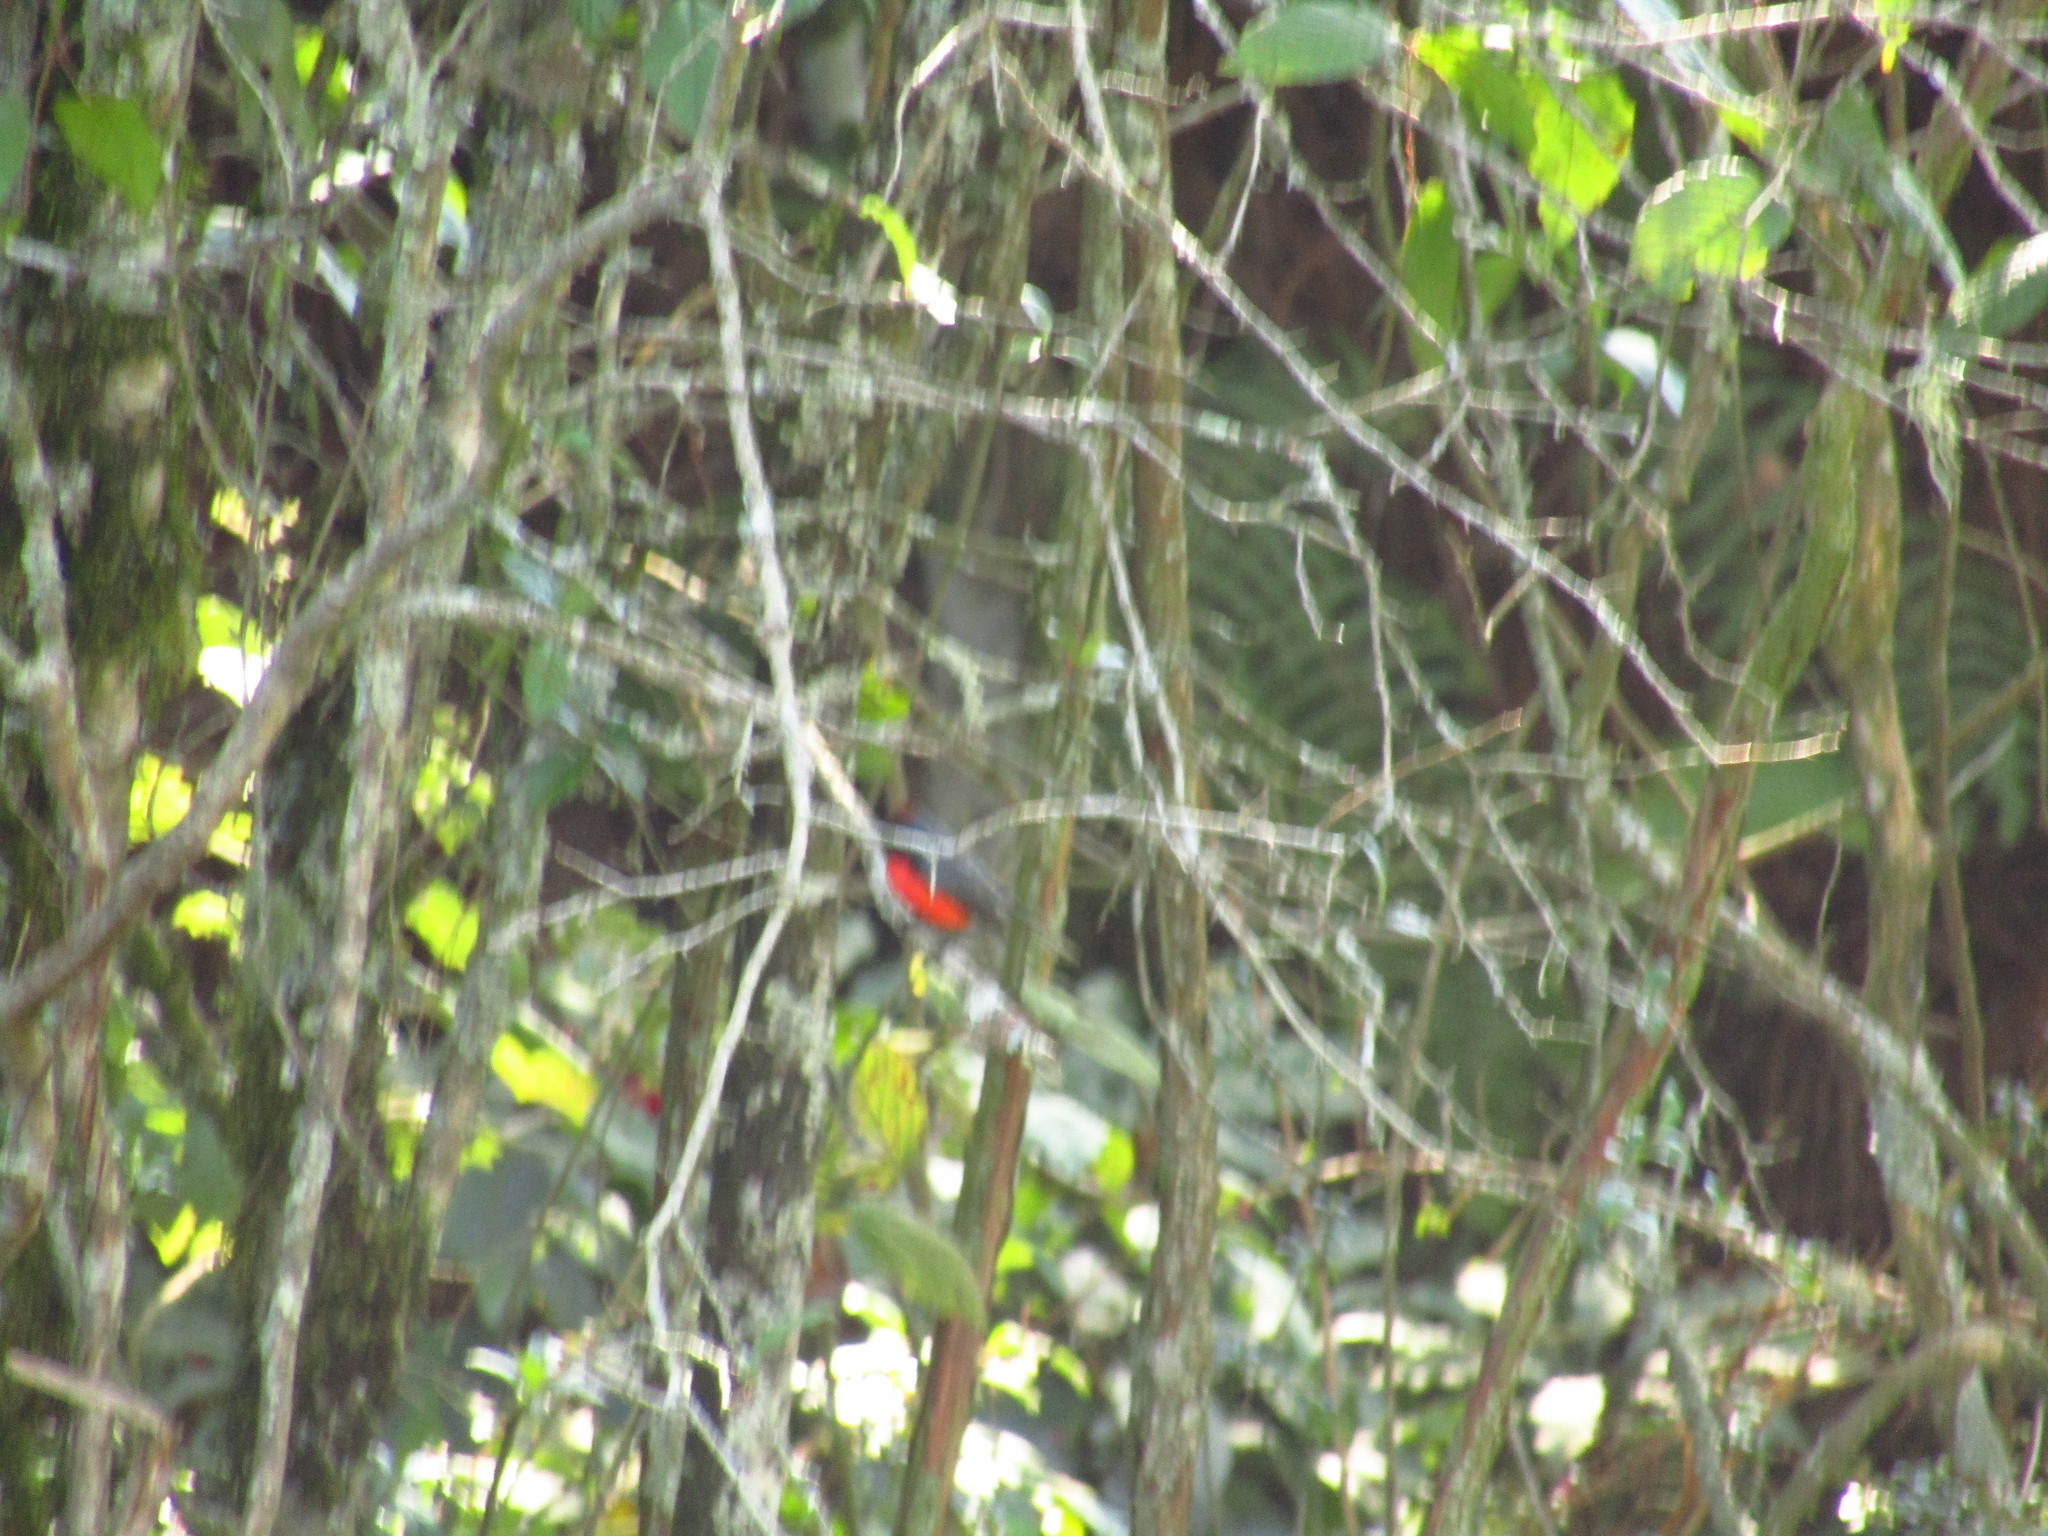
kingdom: Animalia
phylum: Chordata
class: Aves
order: Passeriformes
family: Parulidae
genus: Myioborus
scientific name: Myioborus miniatus
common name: Slate-throated redstart
